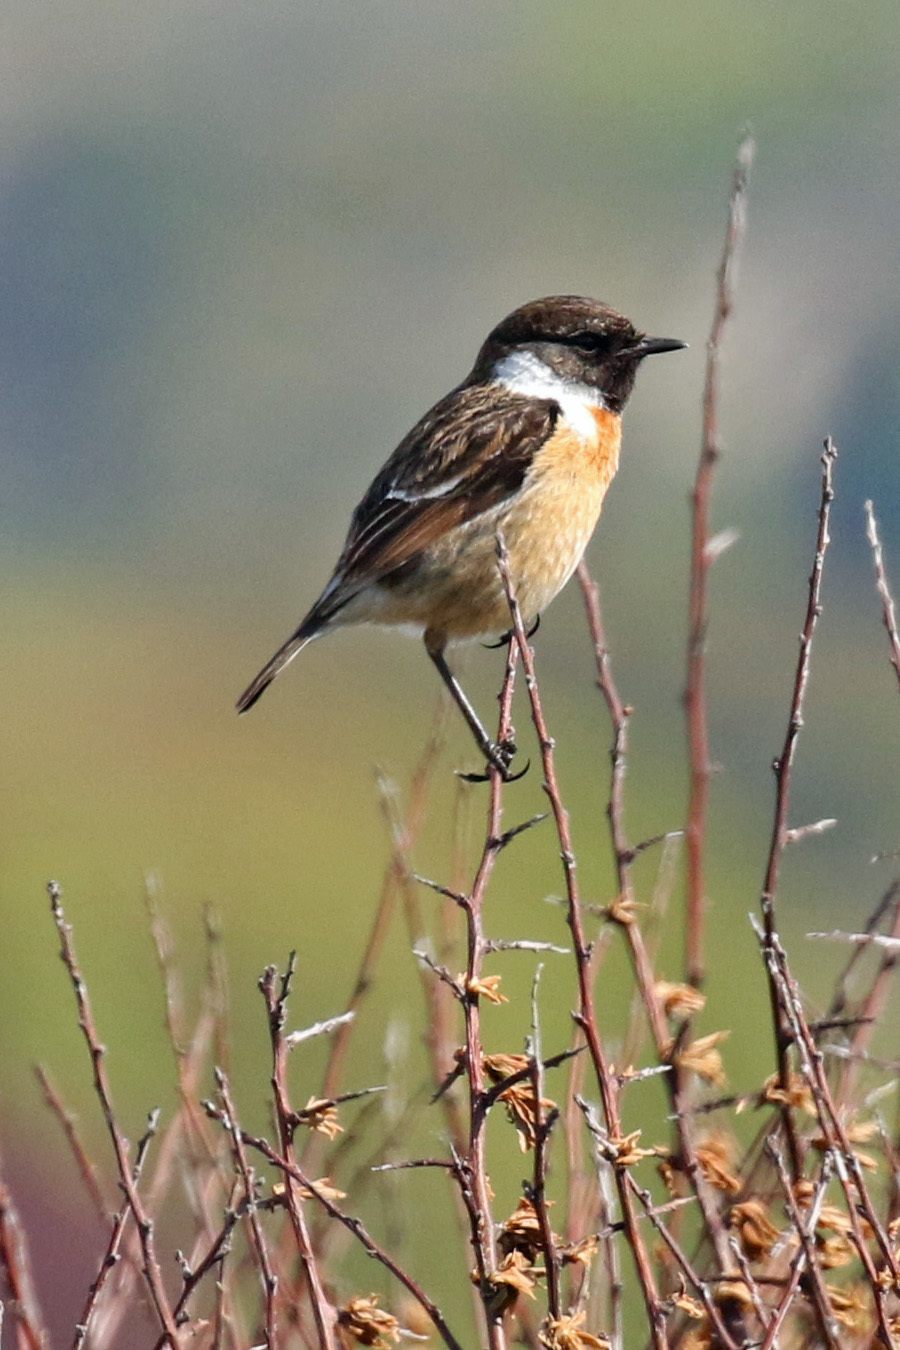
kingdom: Animalia
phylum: Chordata
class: Aves
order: Passeriformes
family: Muscicapidae
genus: Saxicola
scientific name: Saxicola rubicola
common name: European stonechat
